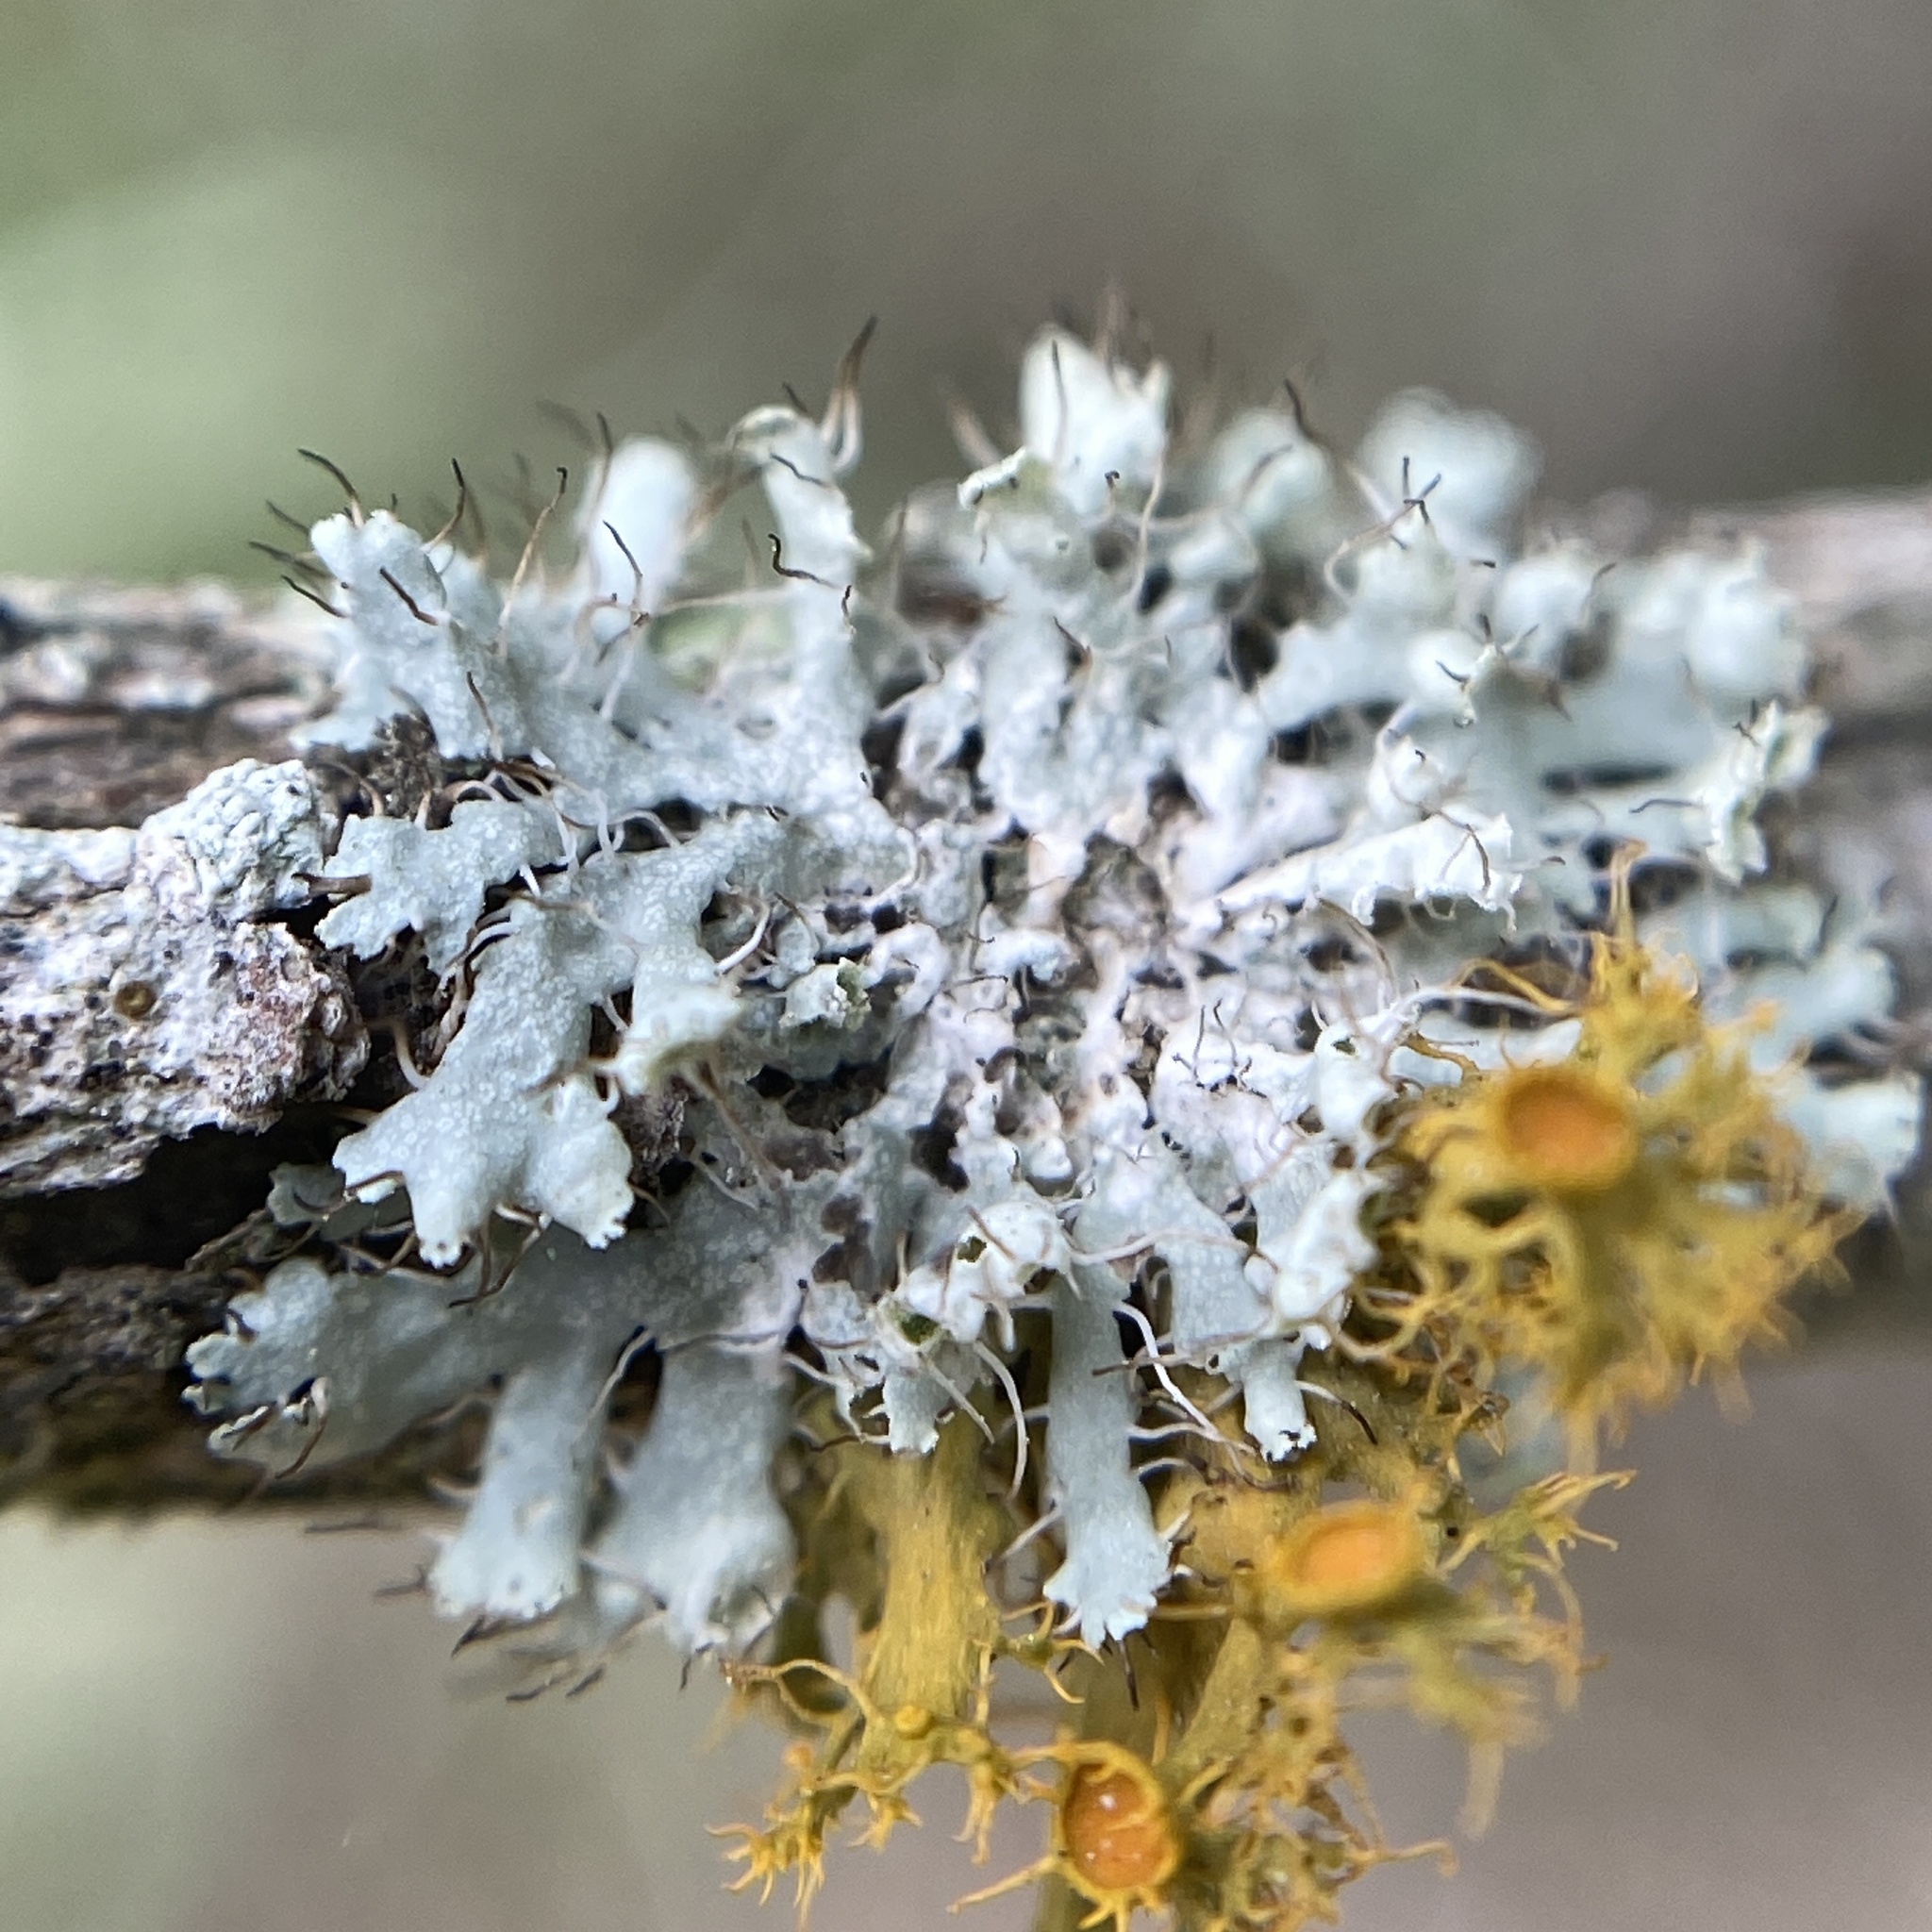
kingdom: Fungi
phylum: Ascomycota
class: Lecanoromycetes
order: Caliciales
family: Physciaceae
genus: Physcia
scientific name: Physcia adscendens
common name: Hooded rosette lichen
